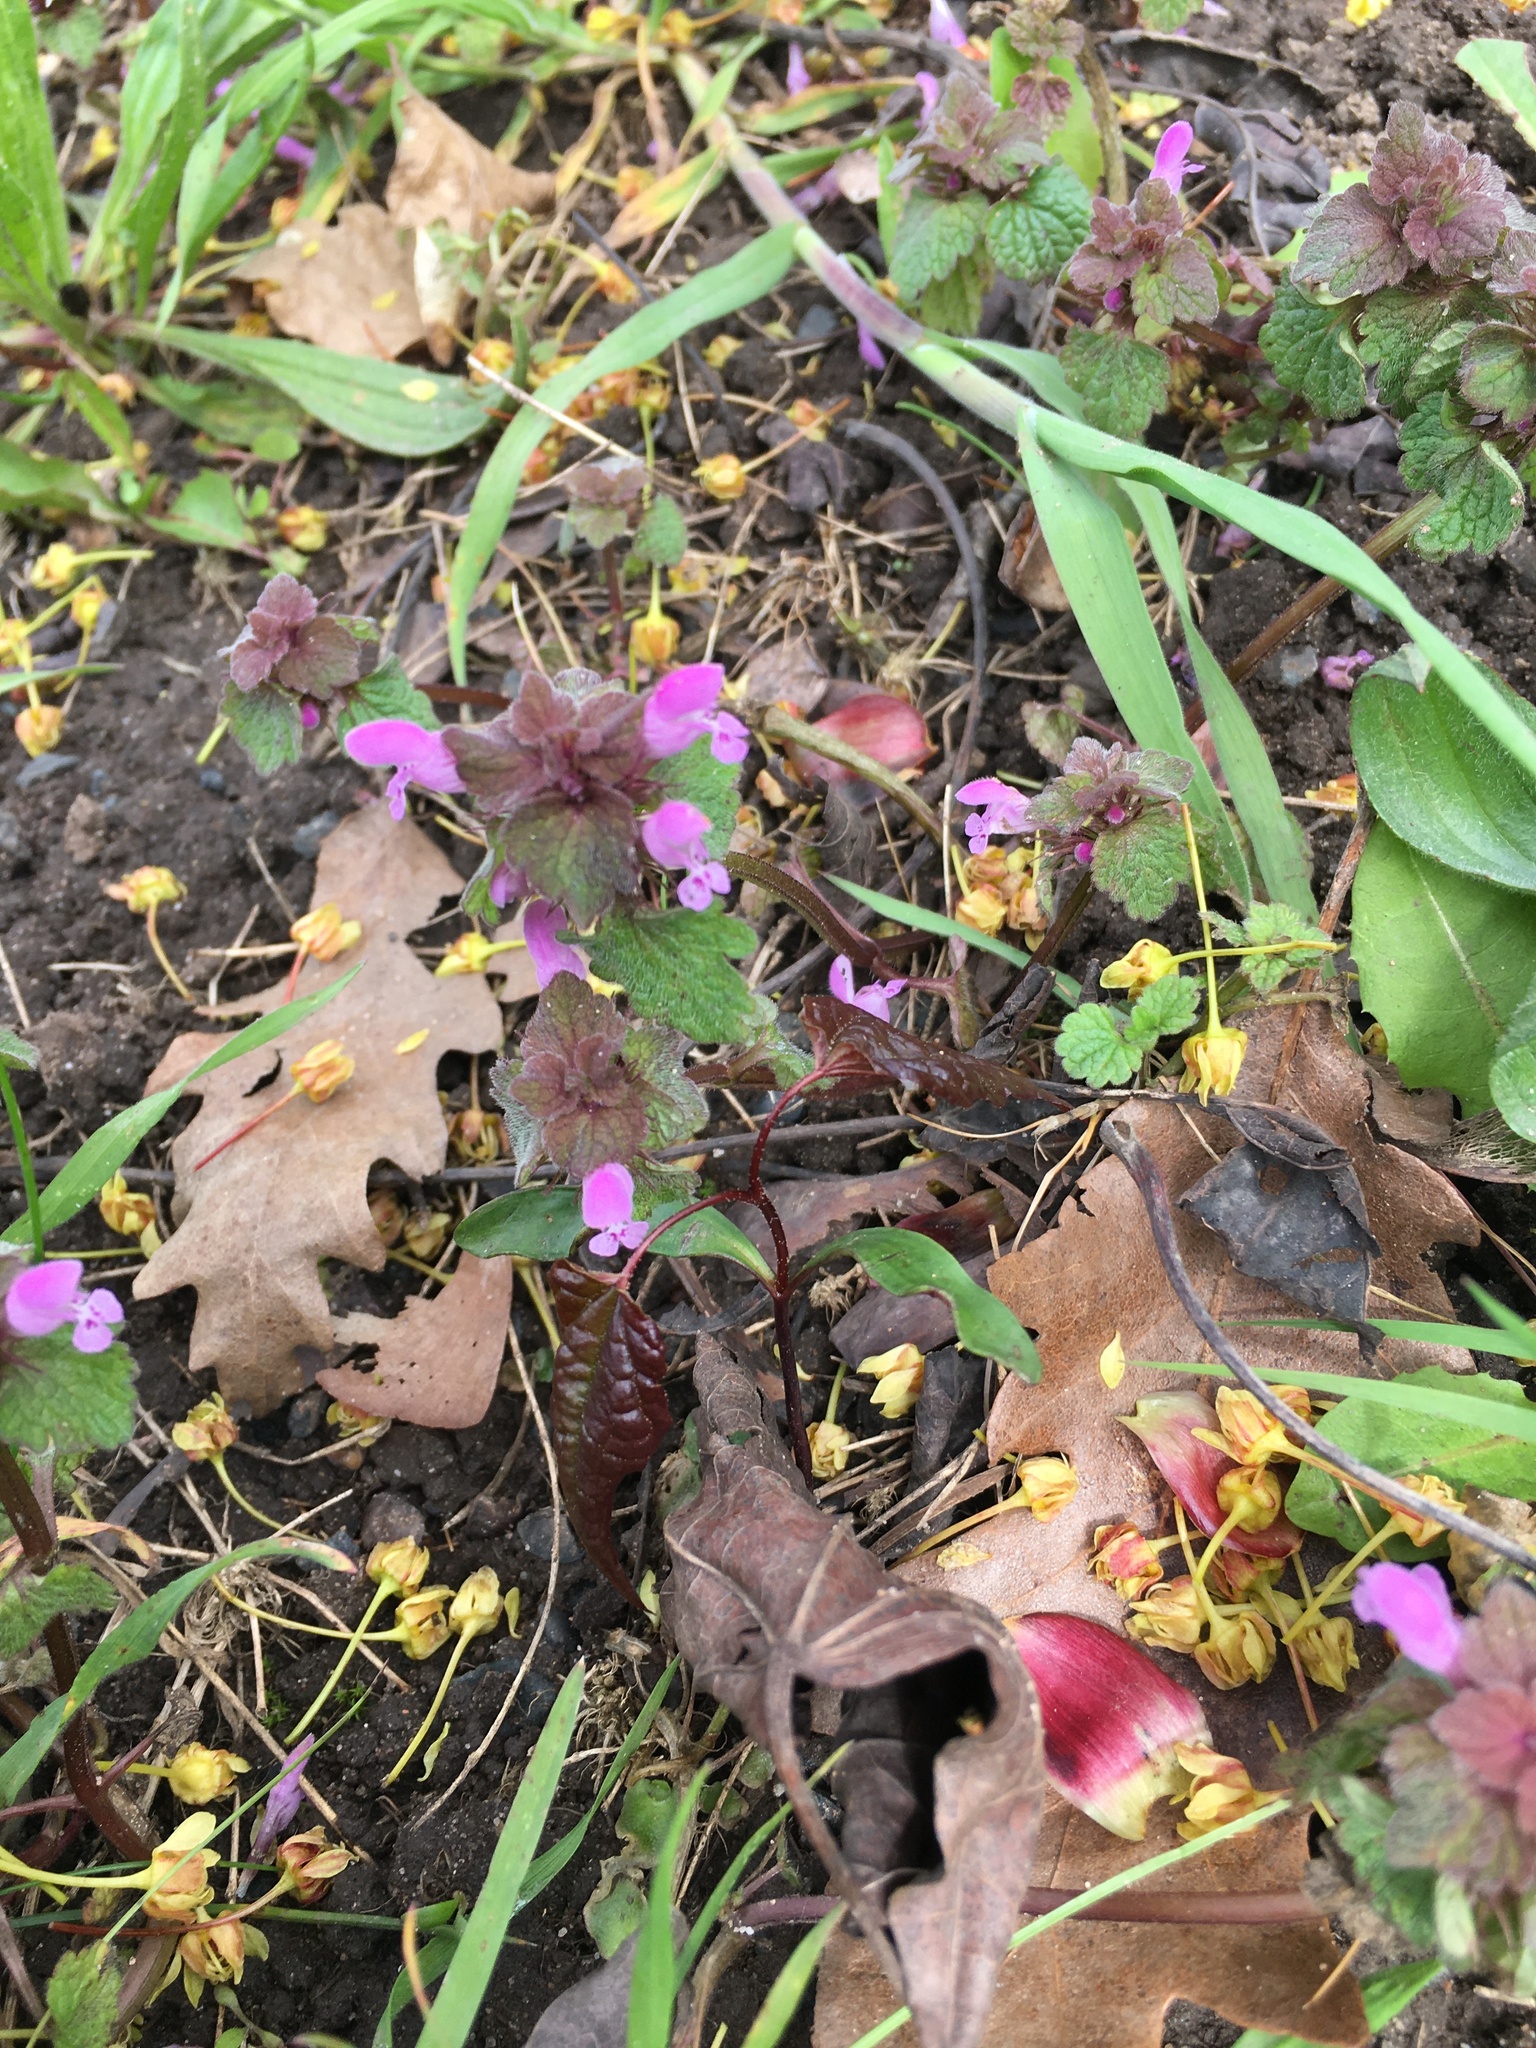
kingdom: Plantae
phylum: Tracheophyta
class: Magnoliopsida
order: Lamiales
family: Lamiaceae
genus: Lamium
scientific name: Lamium purpureum
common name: Red dead-nettle
